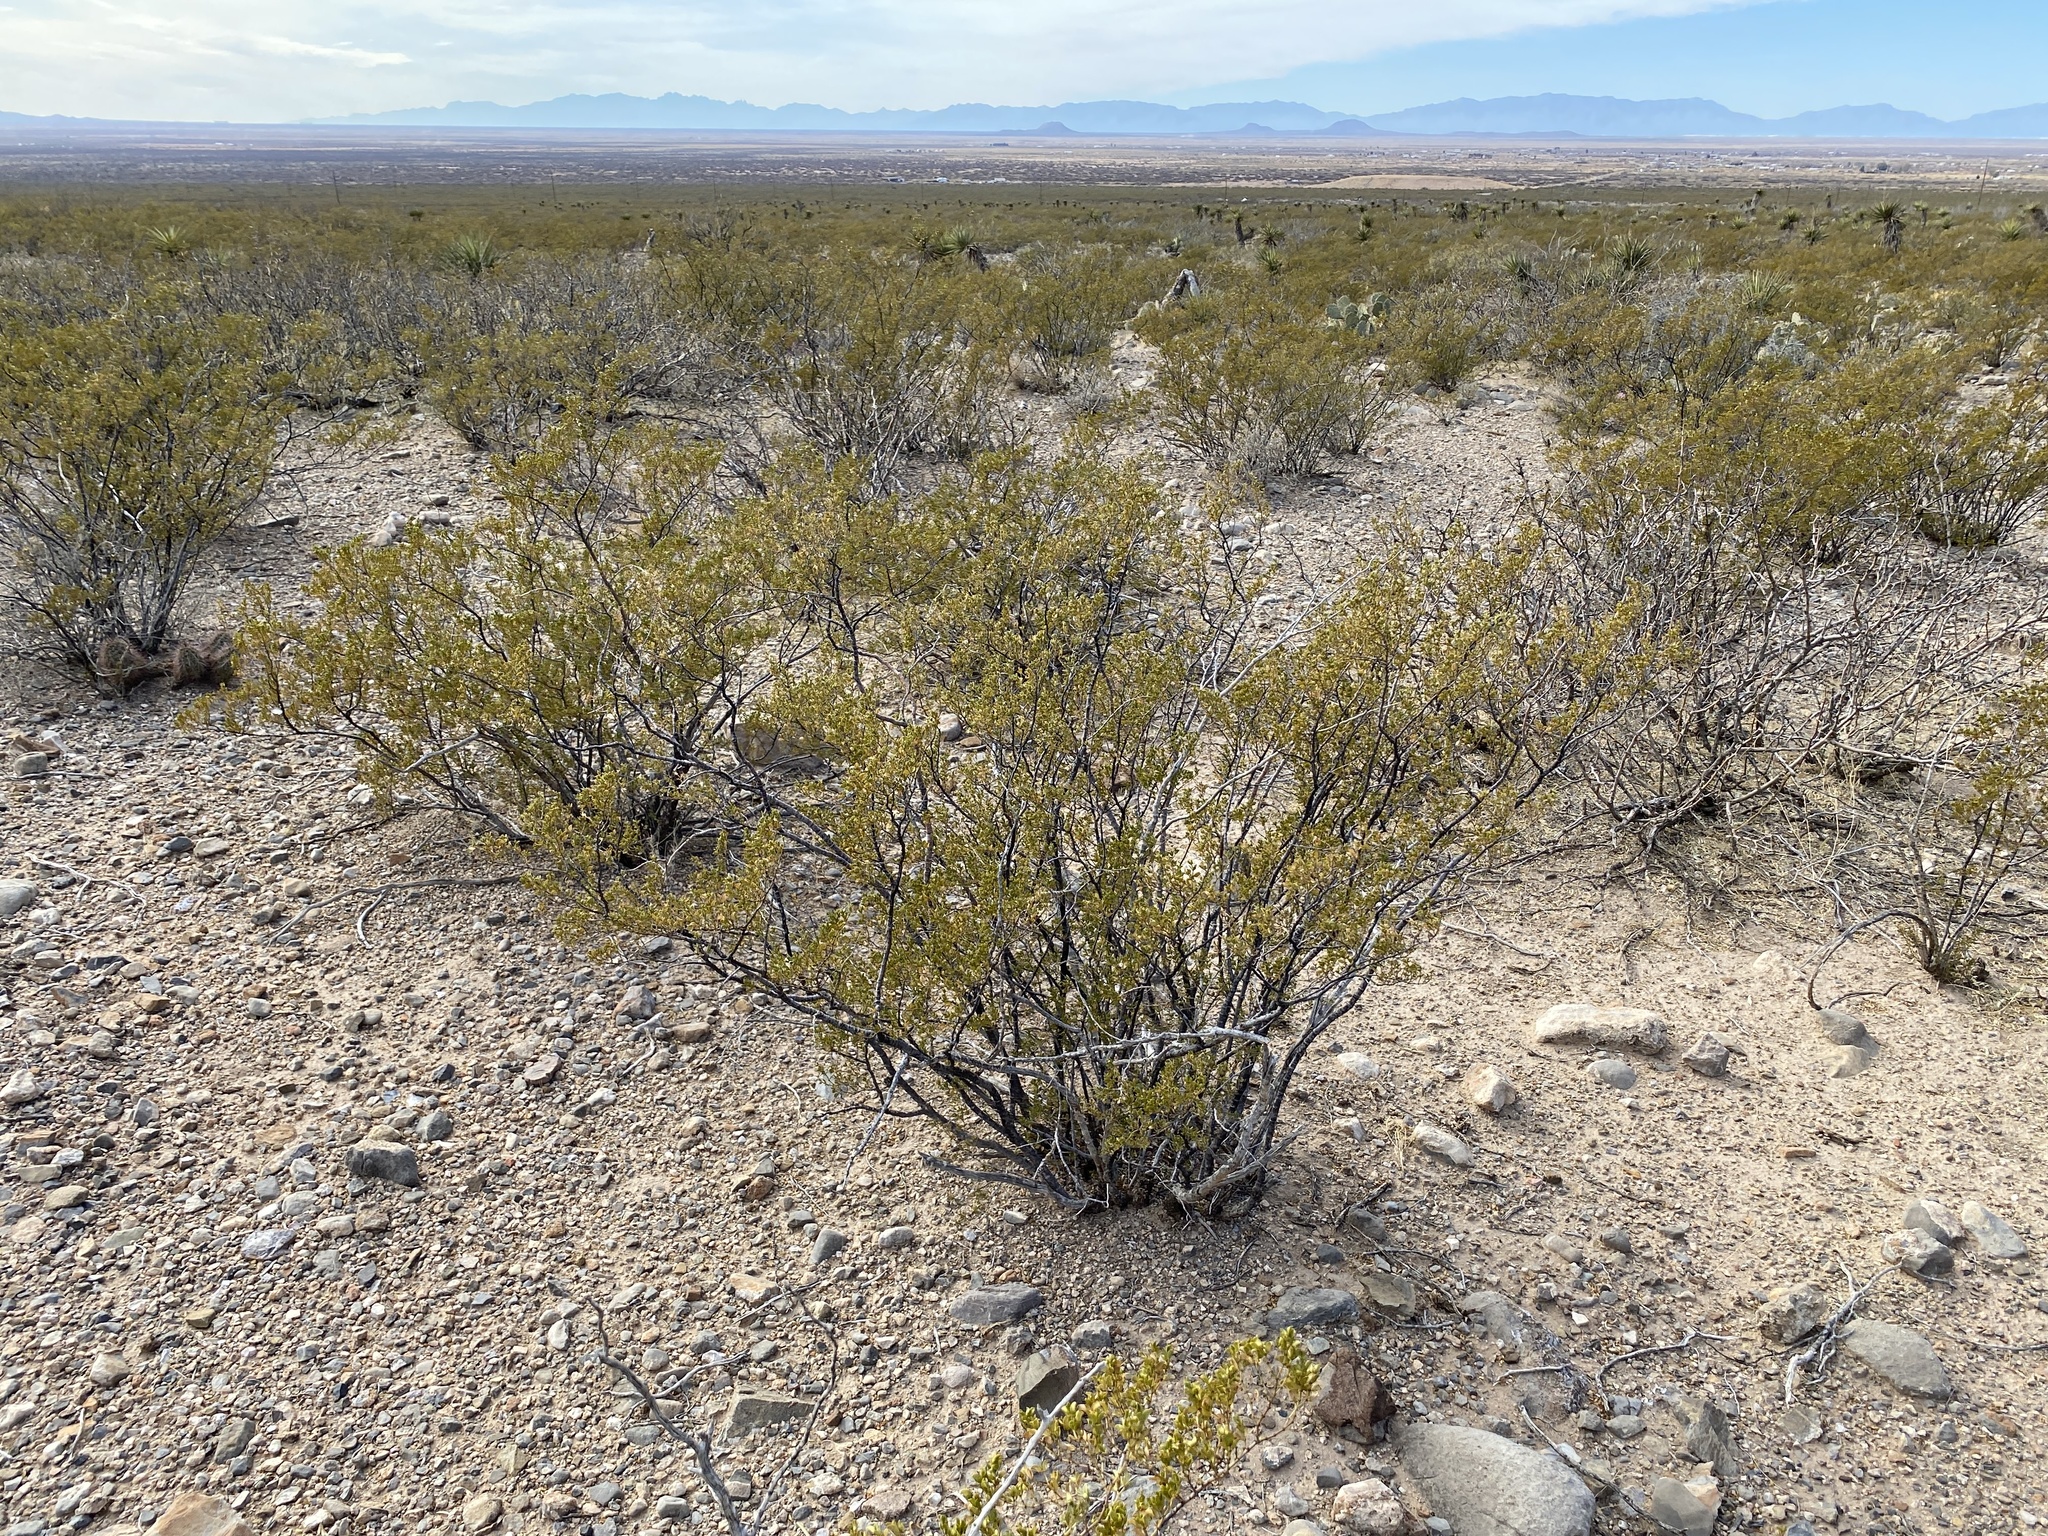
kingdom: Plantae
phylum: Tracheophyta
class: Magnoliopsida
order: Zygophyllales
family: Zygophyllaceae
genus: Larrea
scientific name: Larrea tridentata
